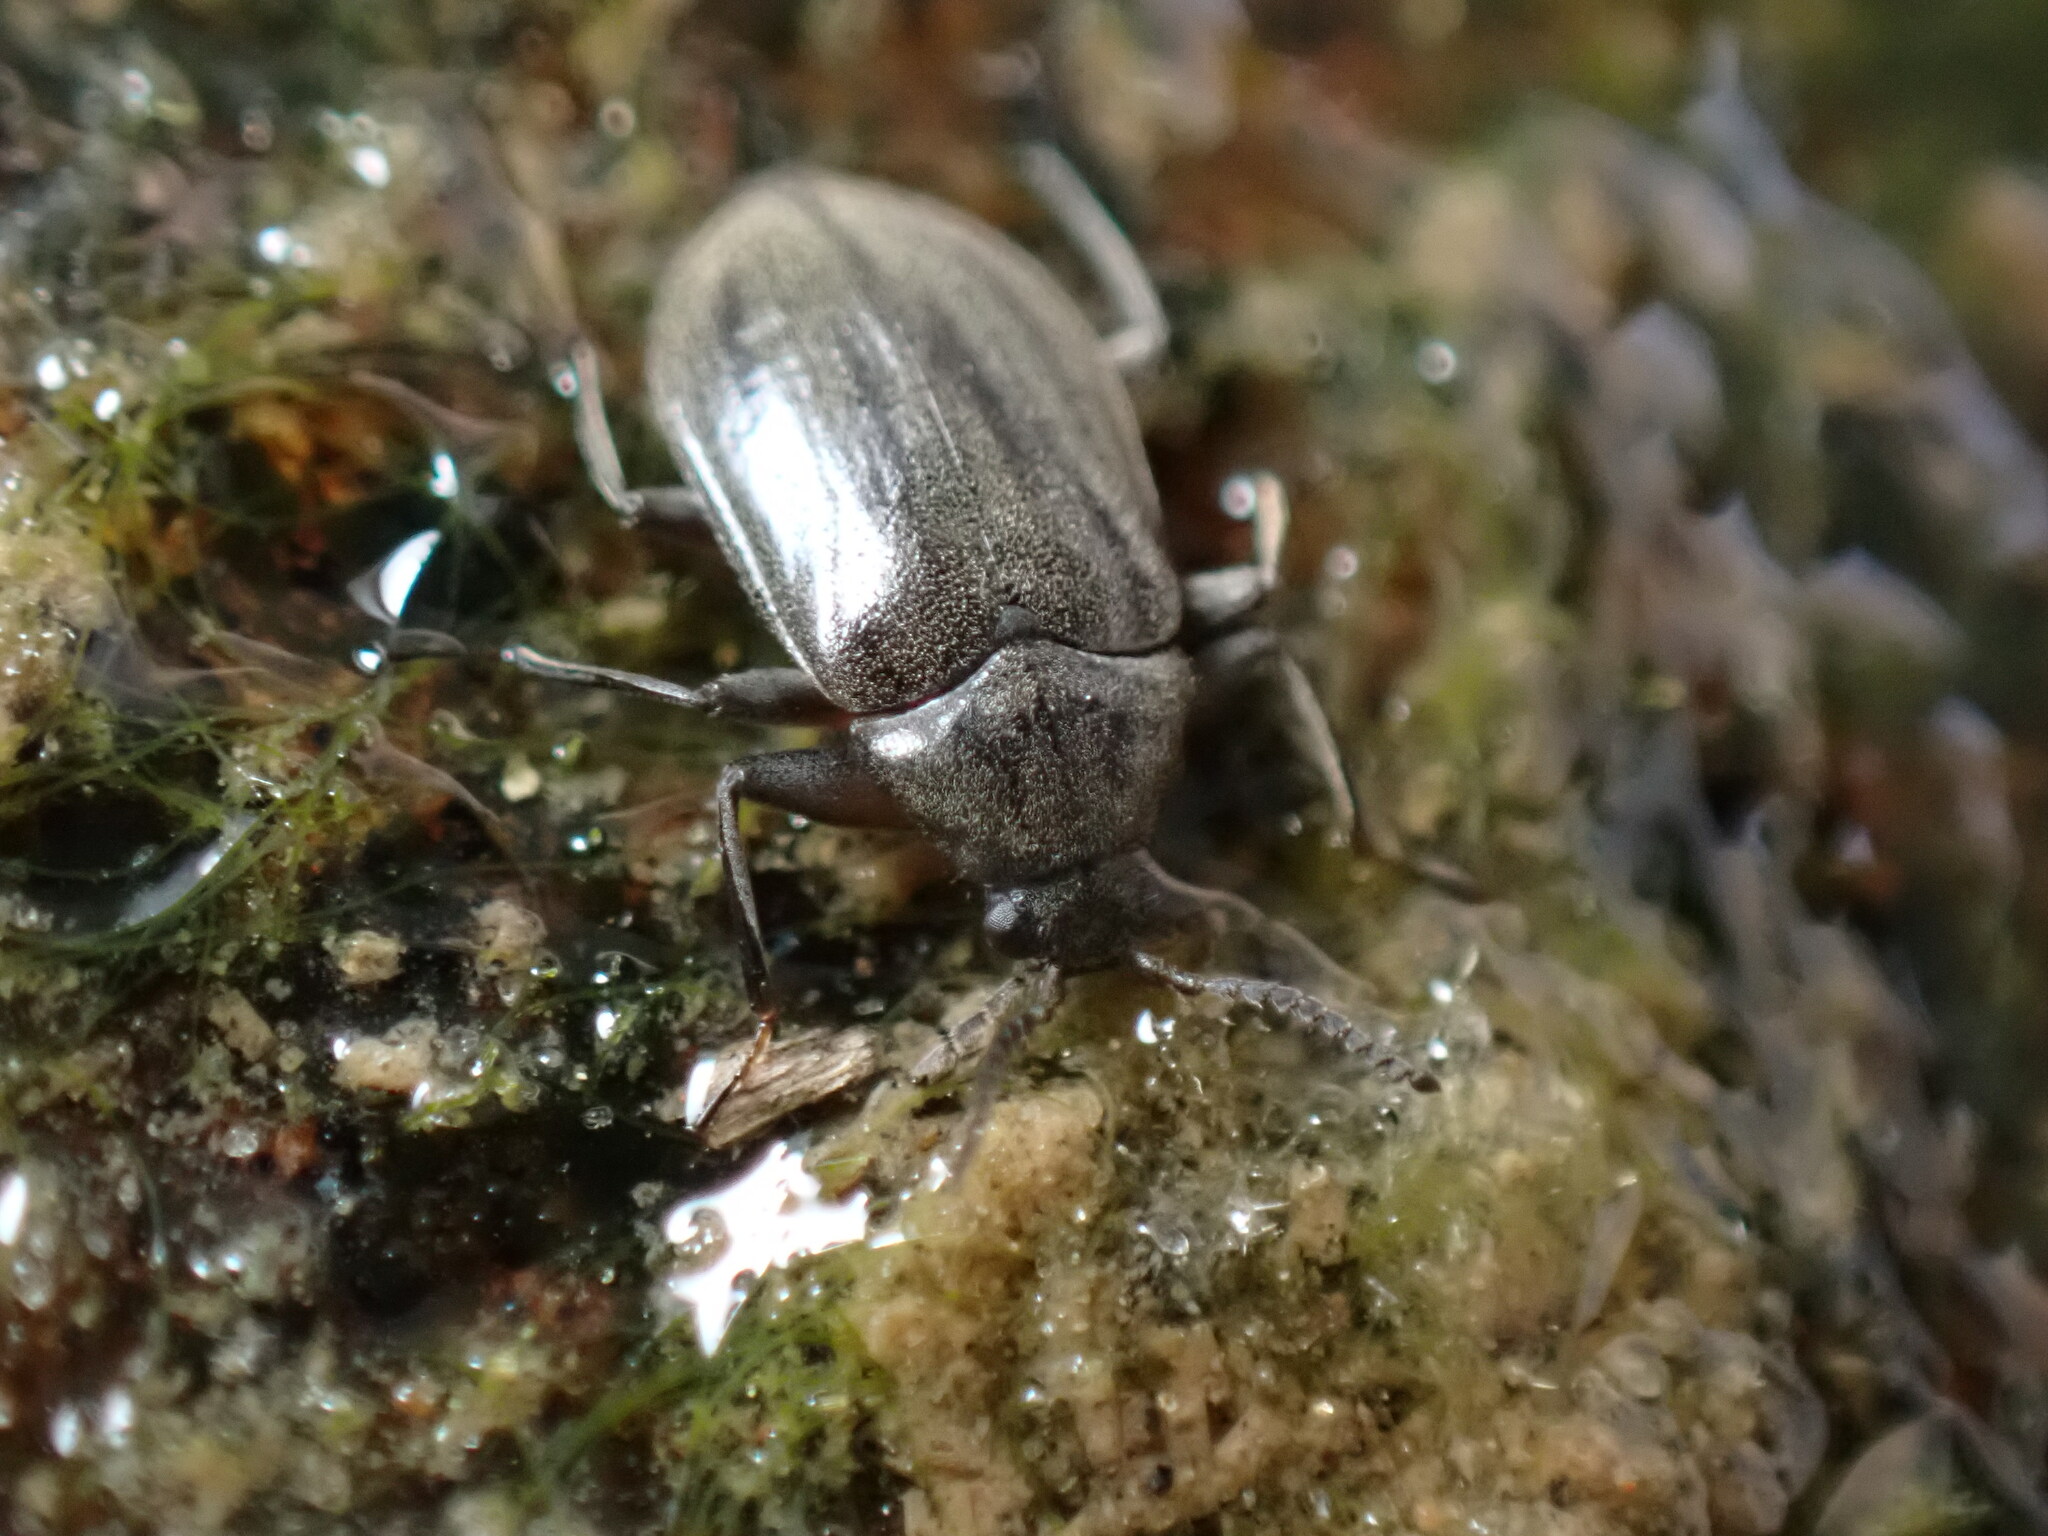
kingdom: Animalia
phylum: Arthropoda
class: Insecta
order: Coleoptera
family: Psephenidae
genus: Psephenus
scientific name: Psephenus herricki
